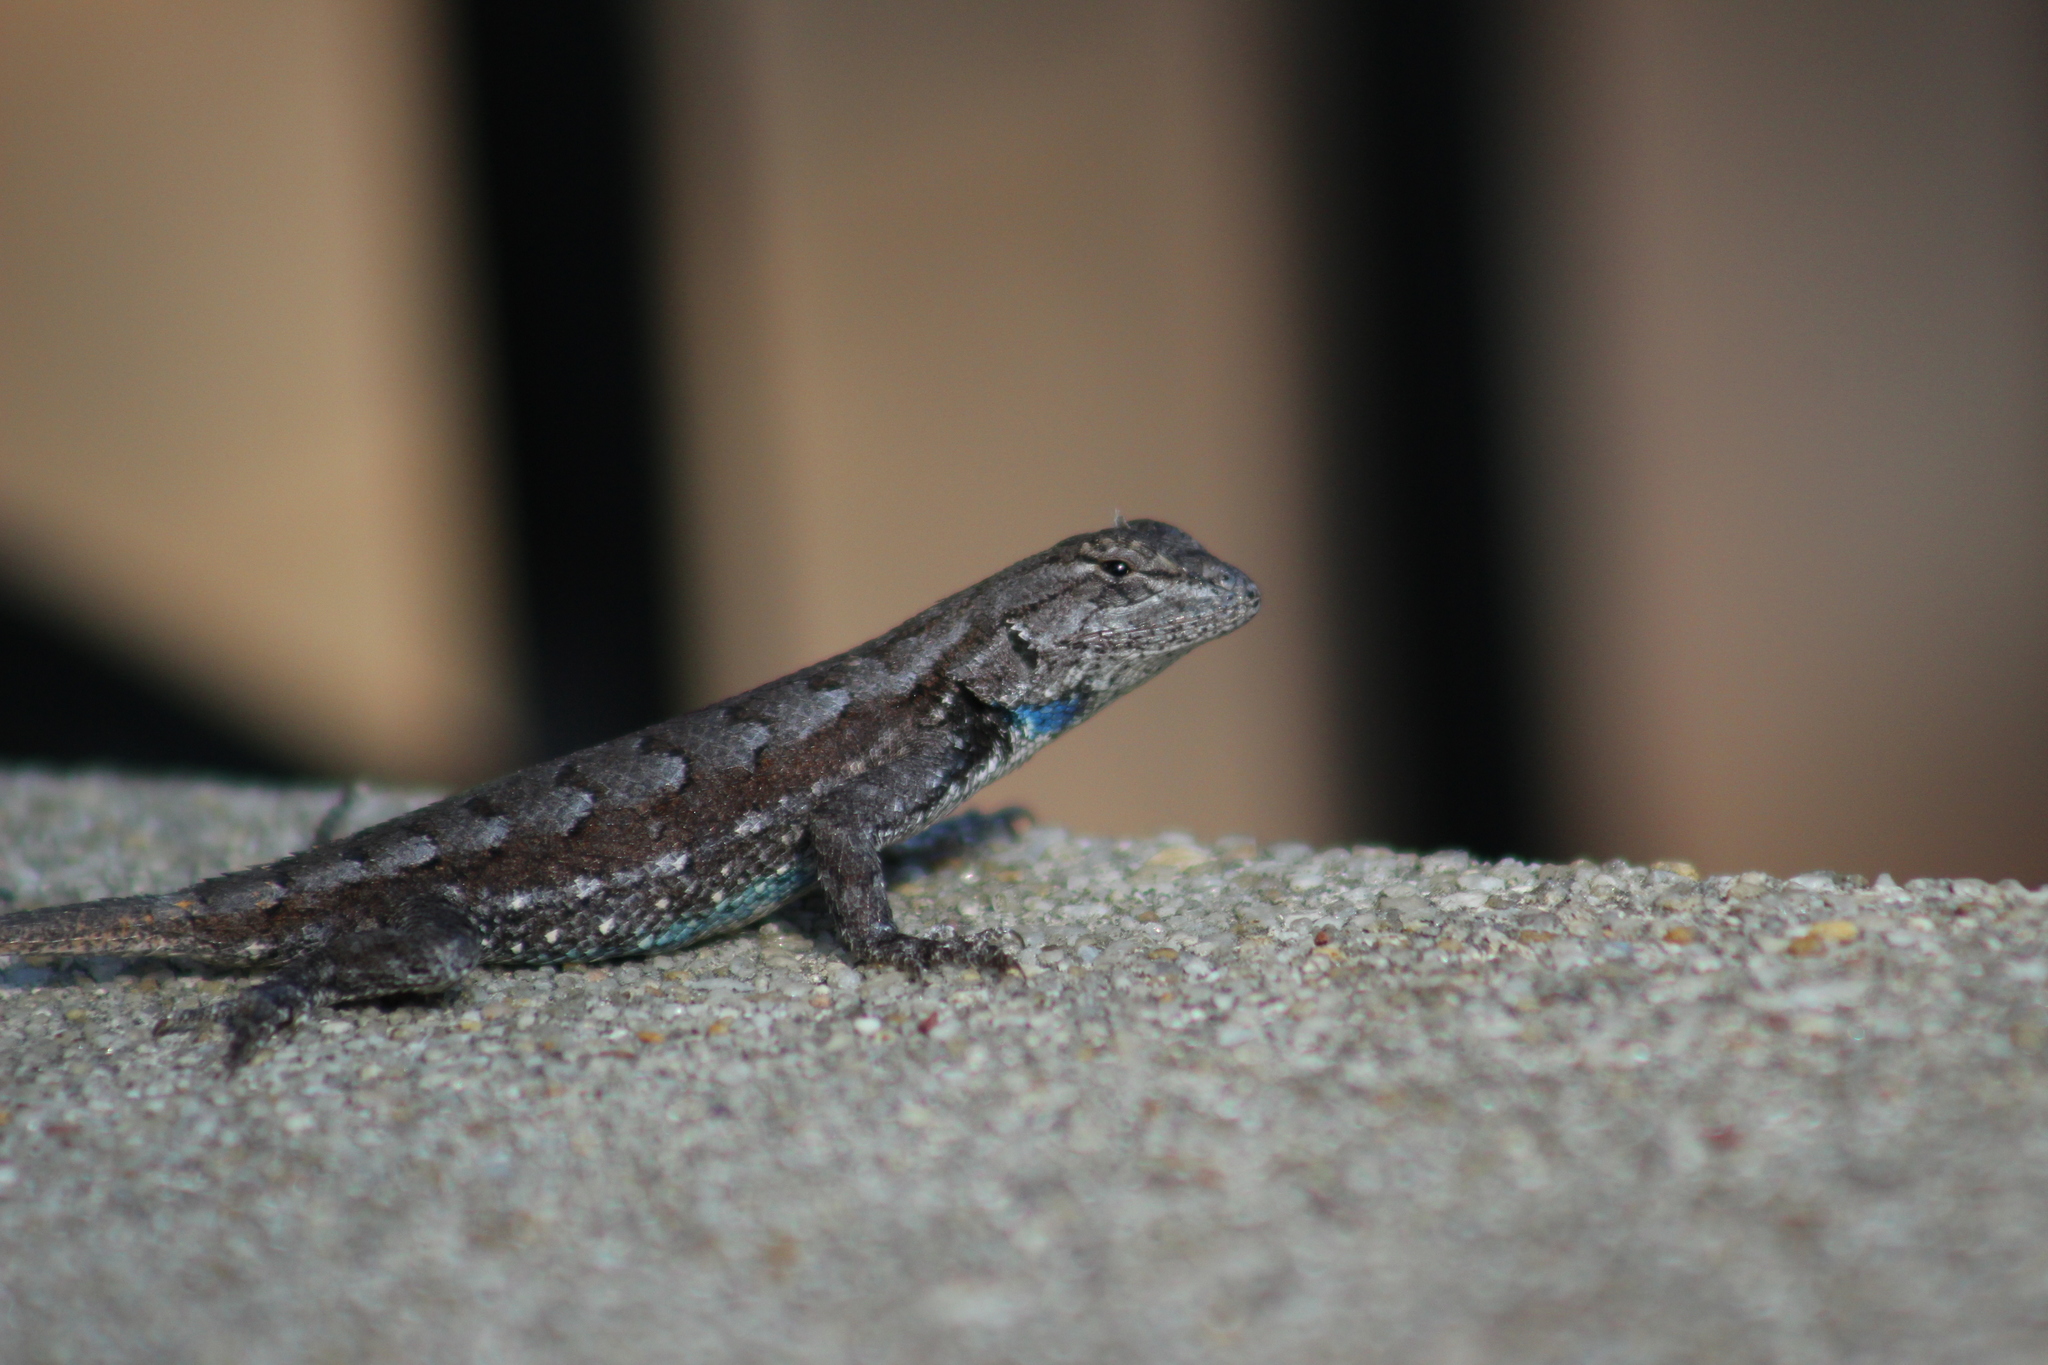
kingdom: Animalia
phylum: Chordata
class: Squamata
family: Phrynosomatidae
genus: Sceloporus
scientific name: Sceloporus undulatus
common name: Eastern fence lizard
